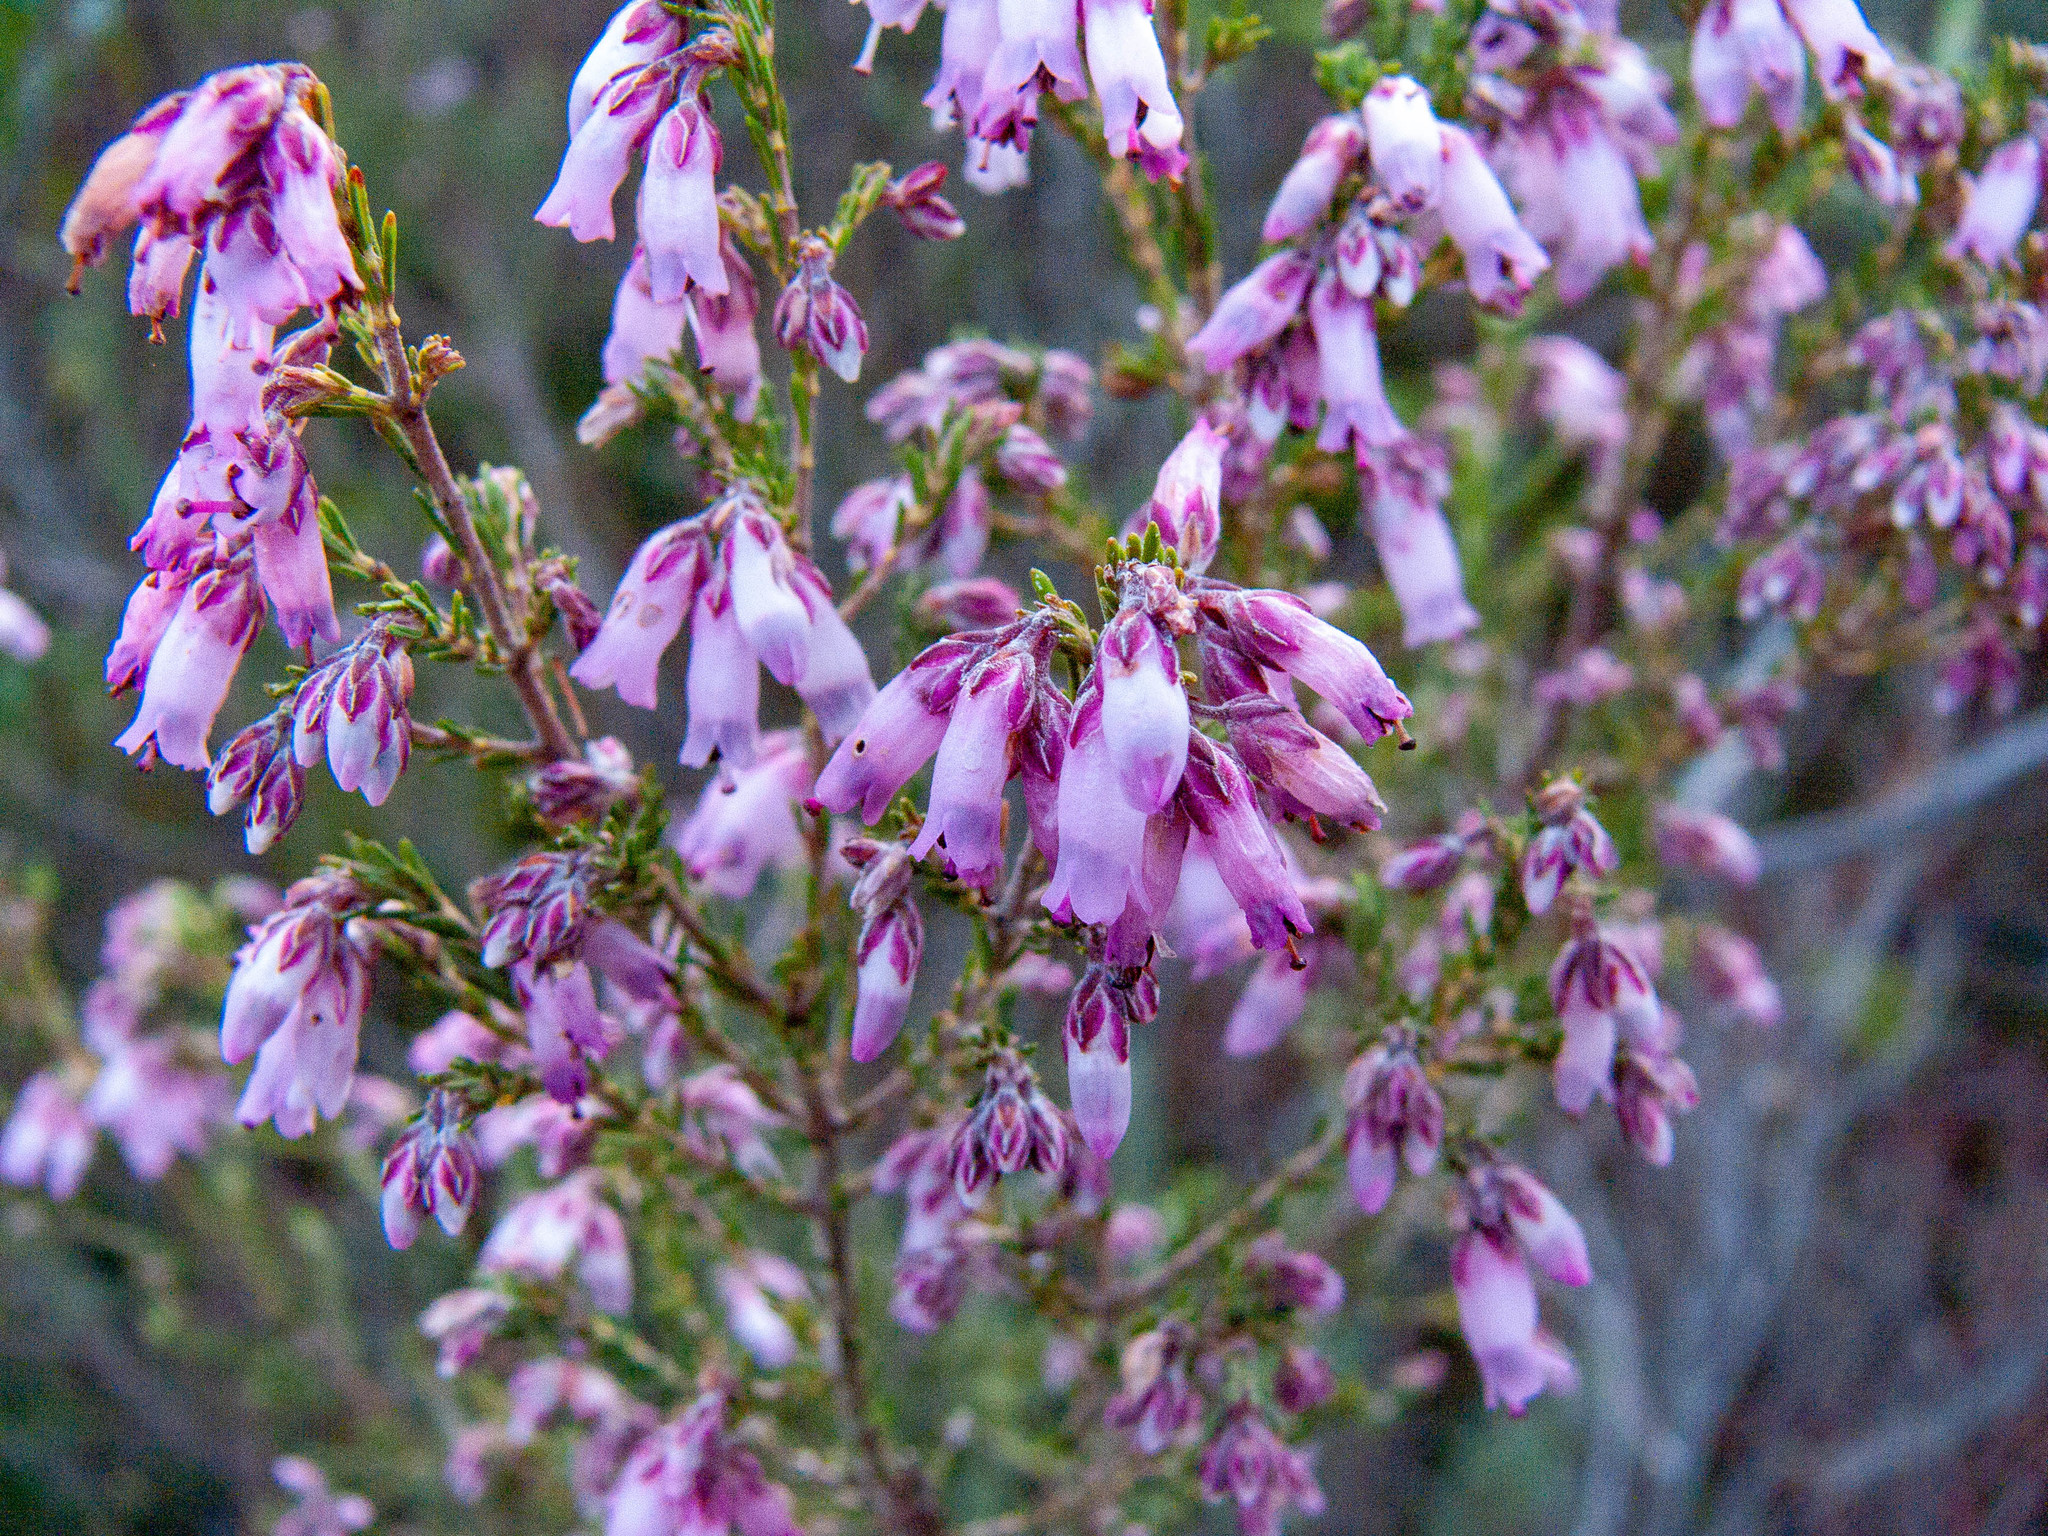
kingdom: Plantae
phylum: Tracheophyta
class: Magnoliopsida
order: Ericales
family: Ericaceae
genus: Erica
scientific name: Erica australis
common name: Spanish heath
